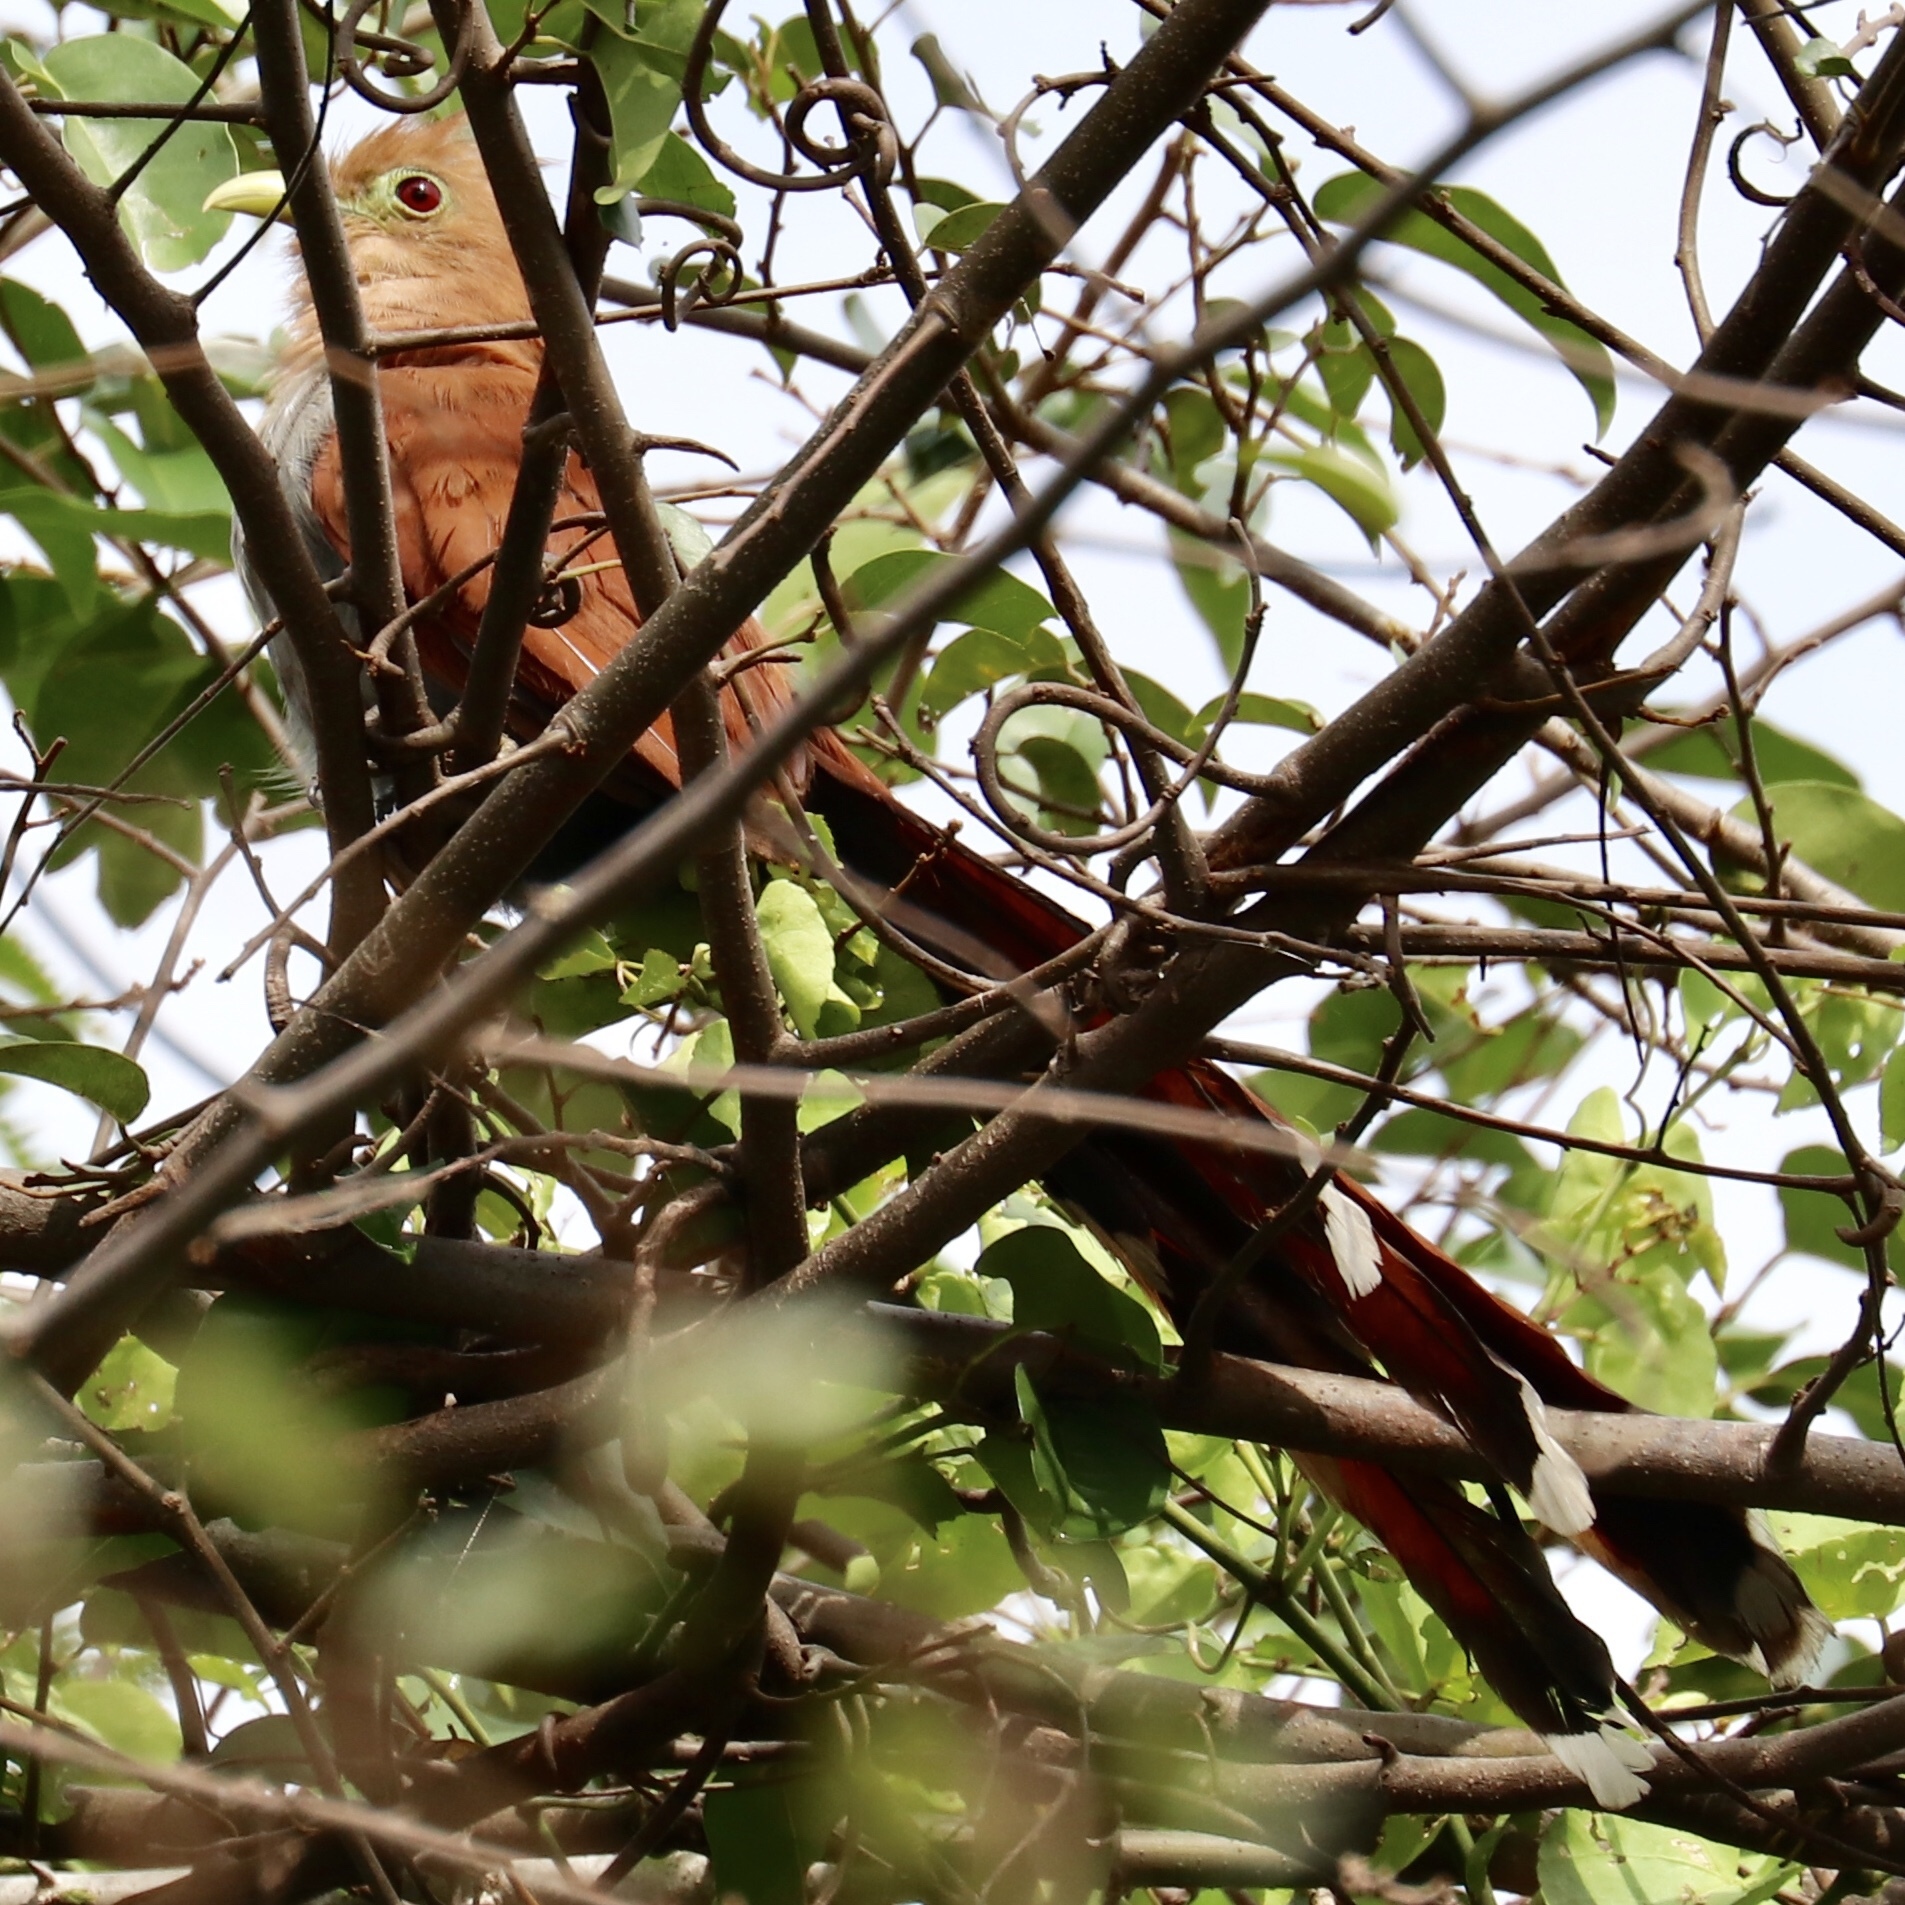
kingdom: Animalia
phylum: Chordata
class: Aves
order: Cuculiformes
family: Cuculidae
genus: Piaya
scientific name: Piaya cayana
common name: Squirrel cuckoo
